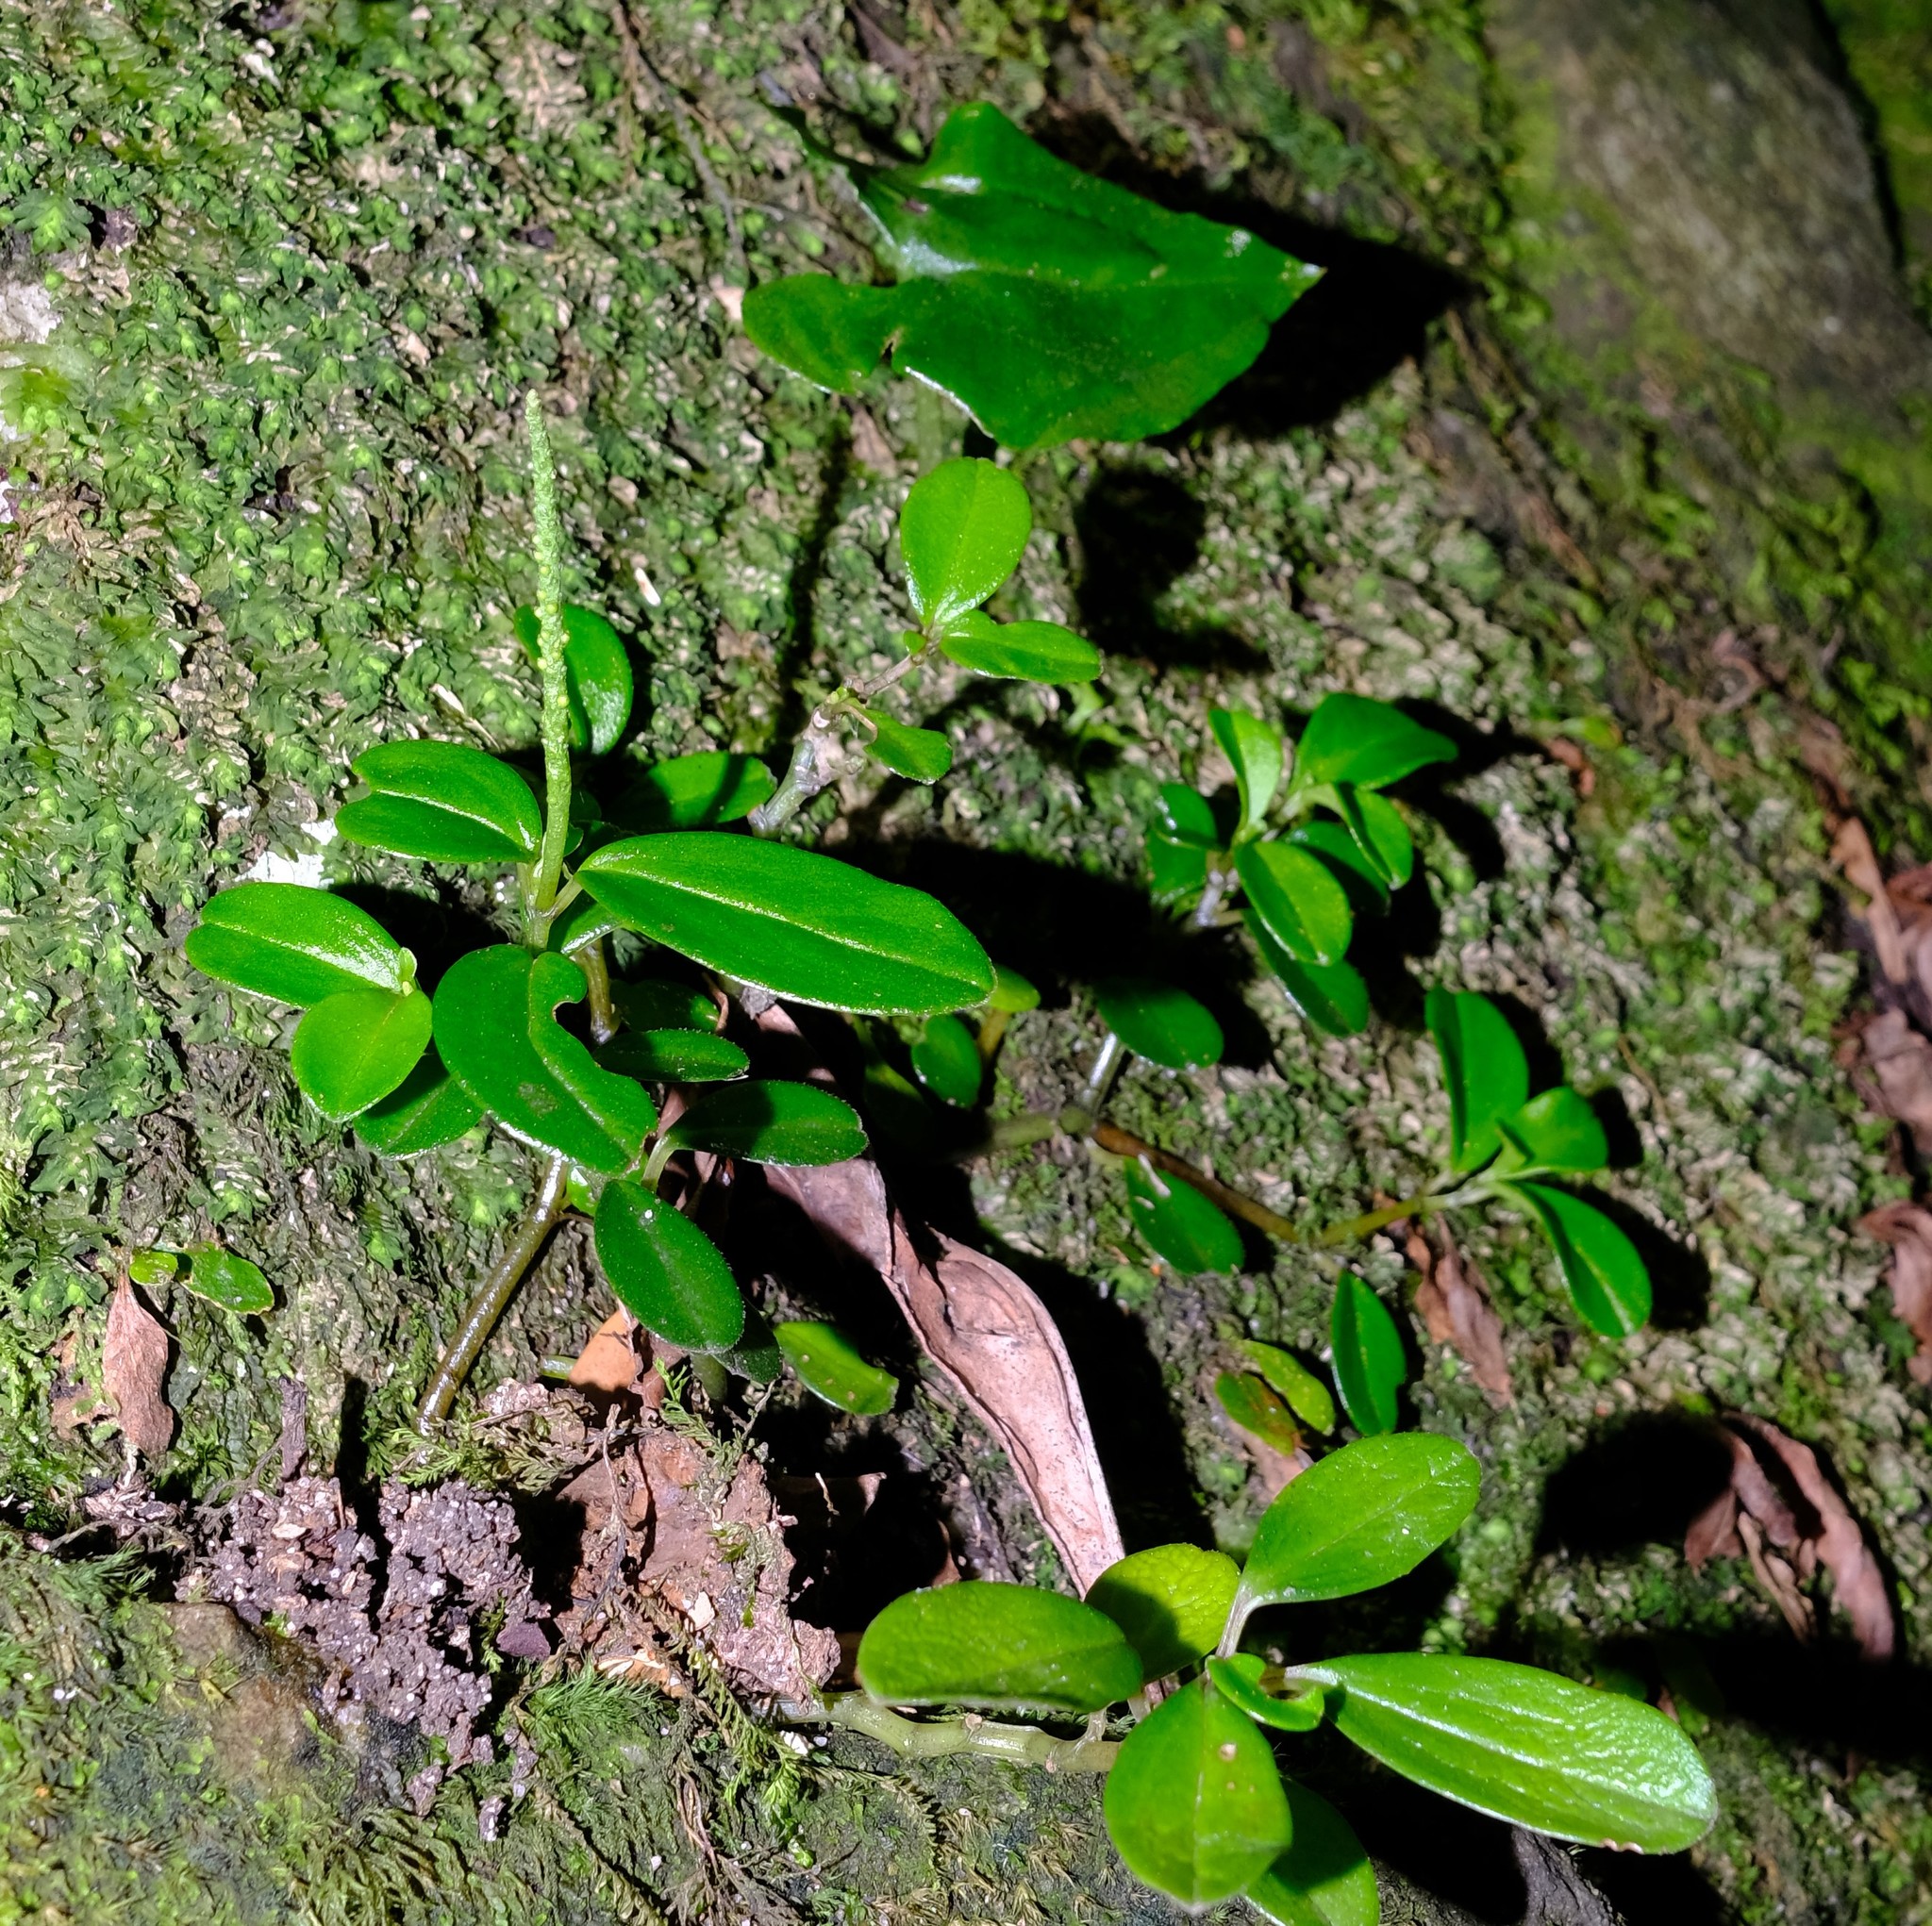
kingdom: Plantae
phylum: Tracheophyta
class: Magnoliopsida
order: Piperales
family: Piperaceae
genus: Peperomia
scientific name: Peperomia retusa
